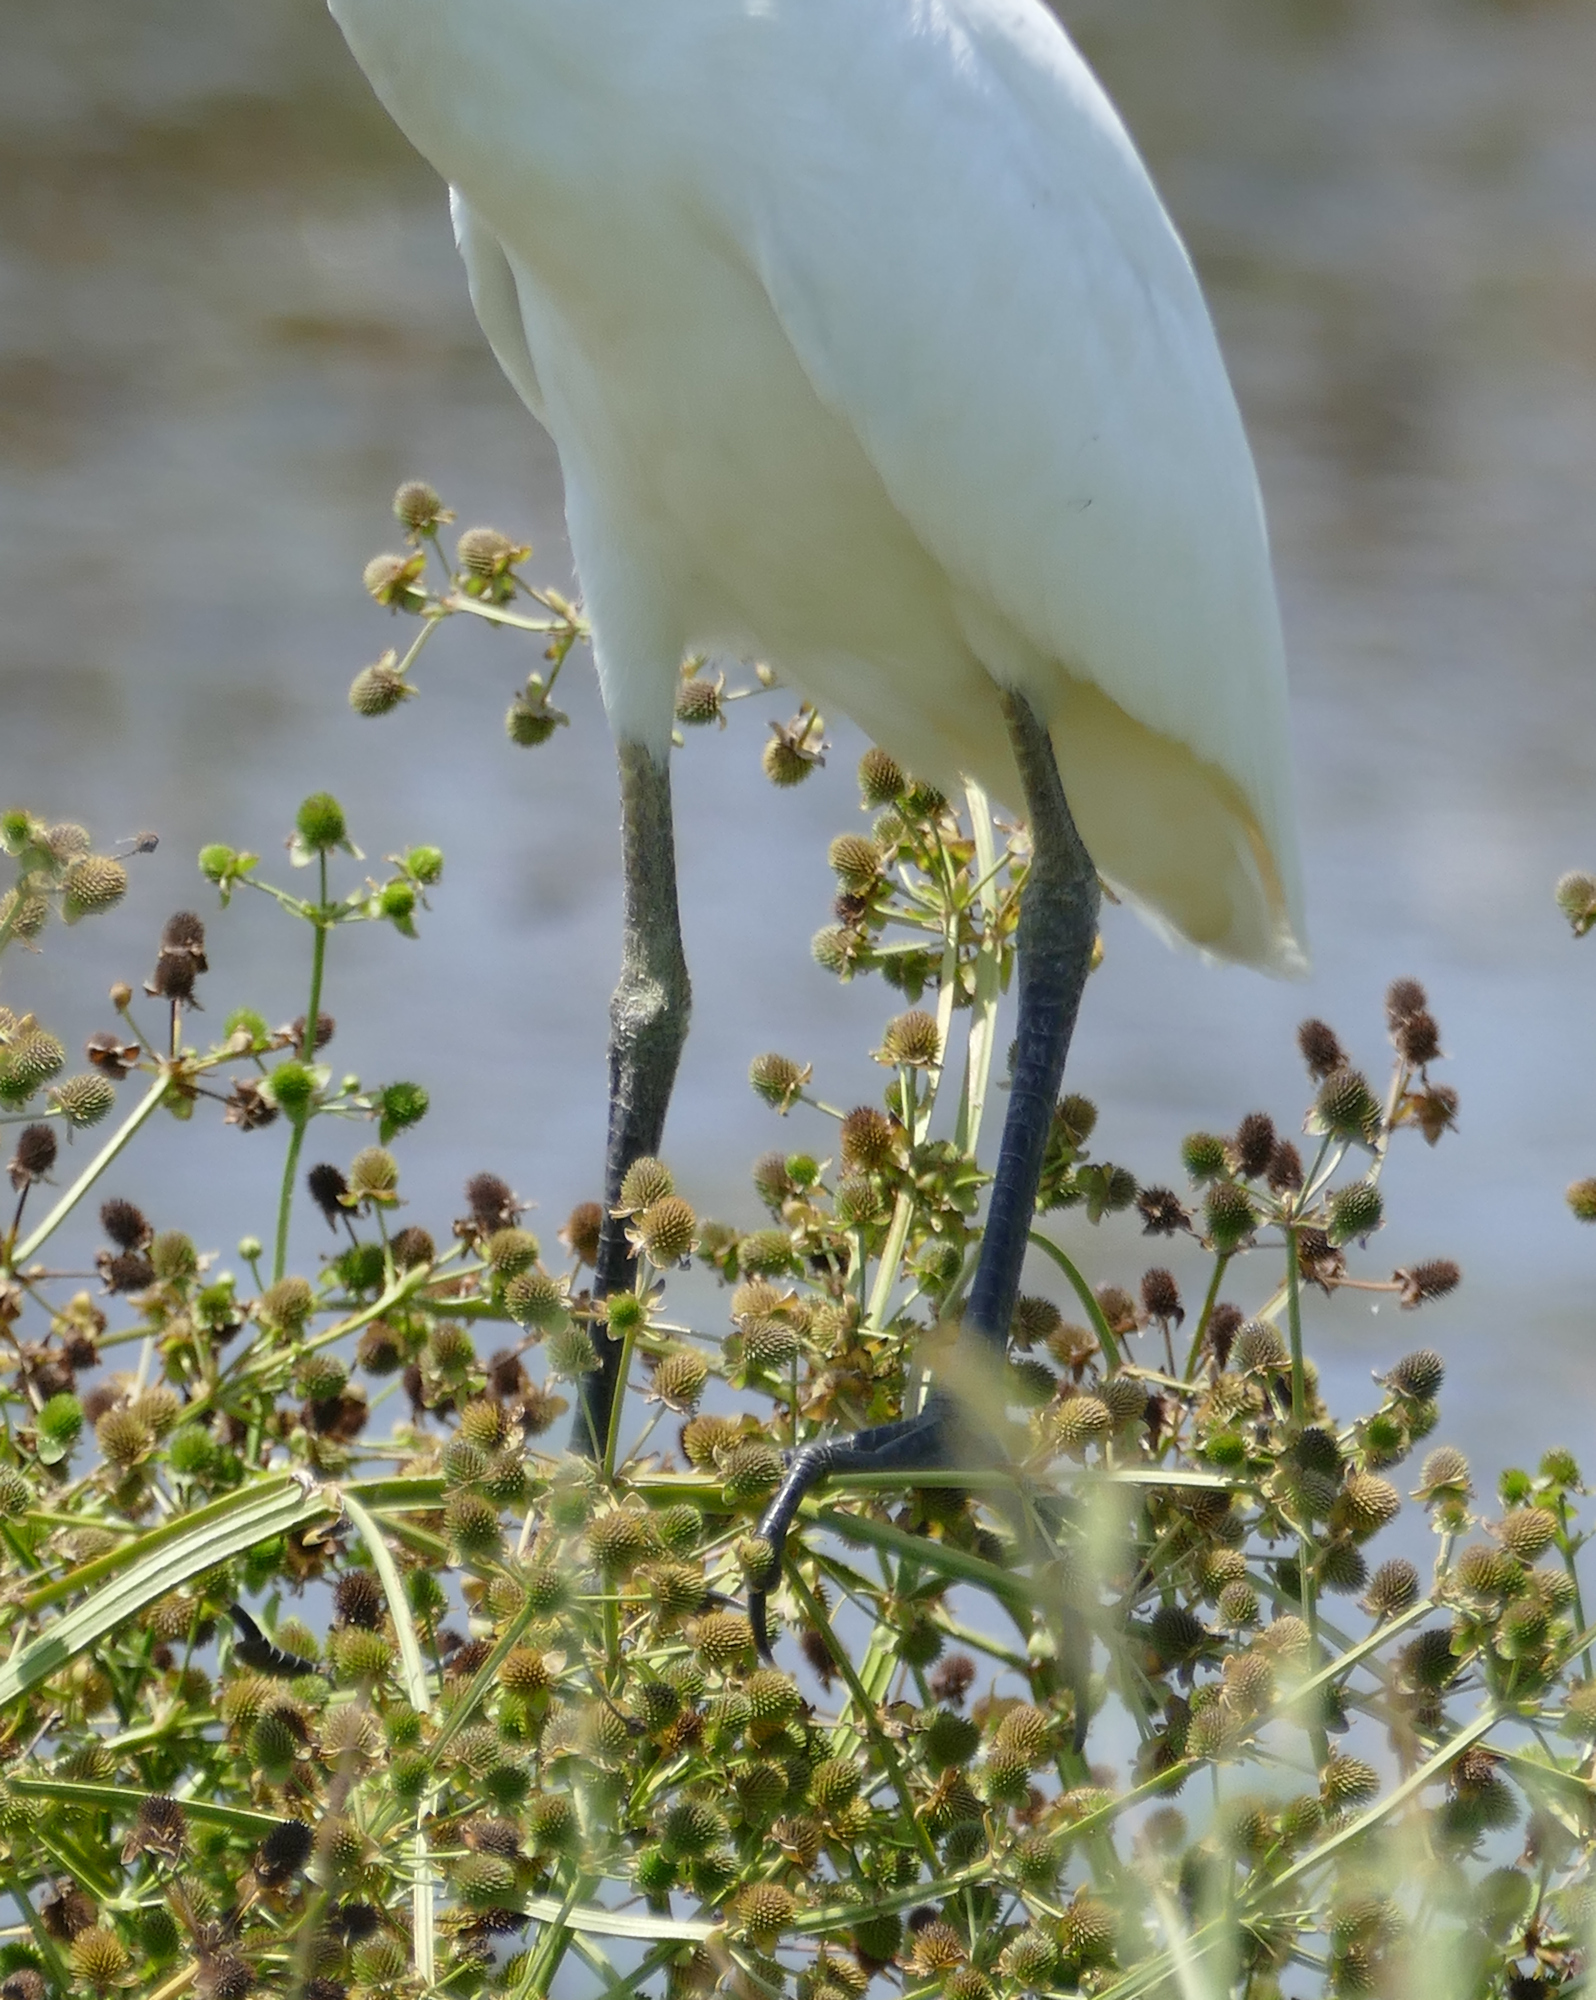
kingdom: Animalia
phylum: Chordata
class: Aves
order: Pelecaniformes
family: Ardeidae
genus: Bubulcus
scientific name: Bubulcus ibis
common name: Cattle egret
